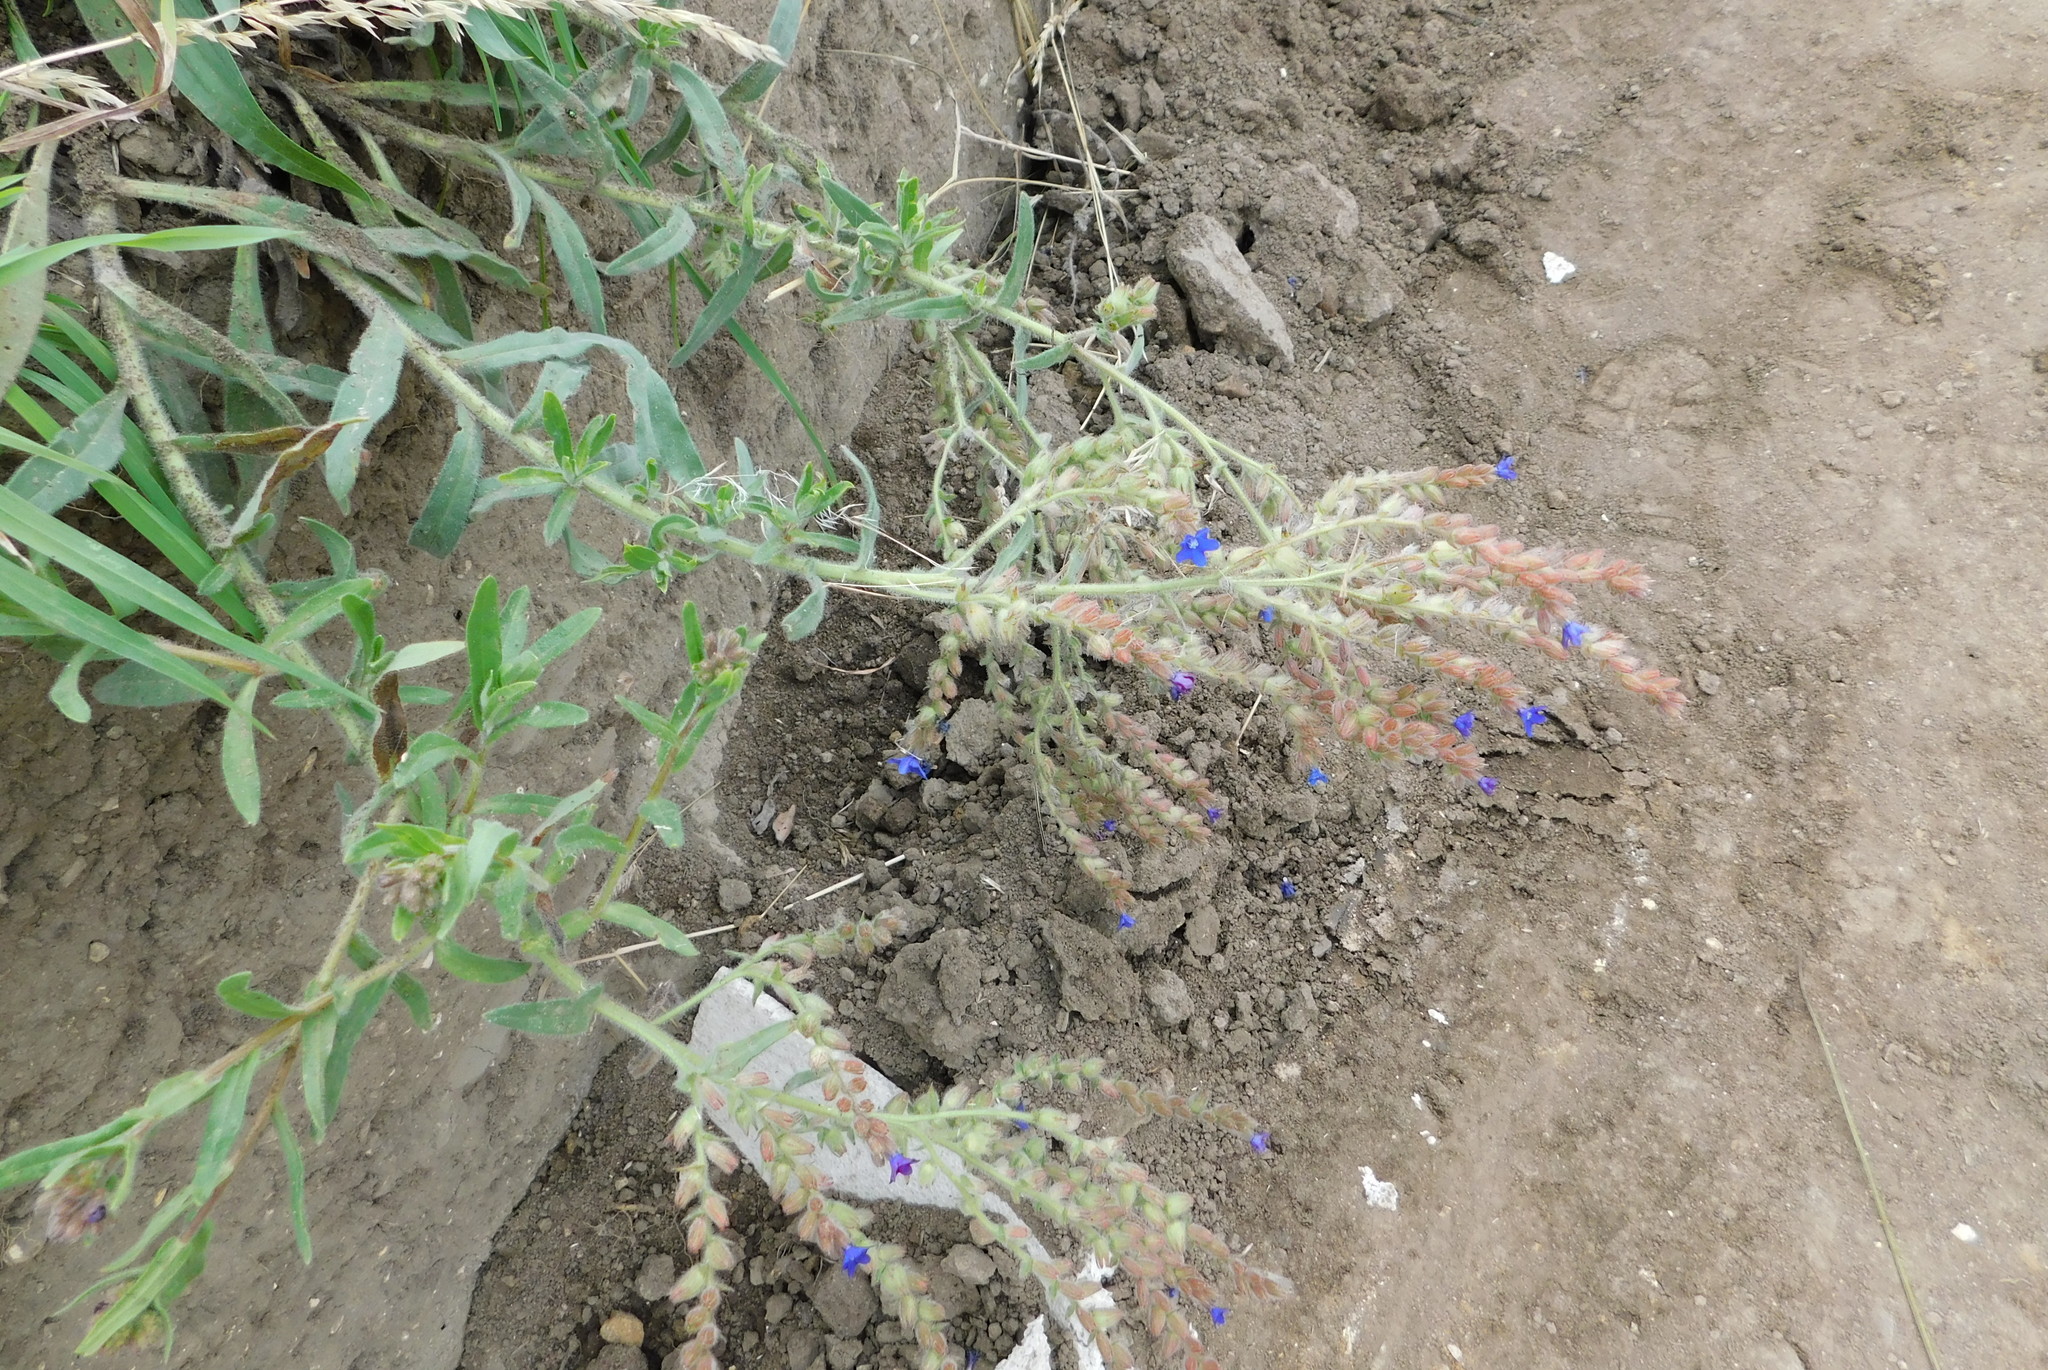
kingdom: Plantae
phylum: Tracheophyta
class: Magnoliopsida
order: Boraginales
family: Boraginaceae
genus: Anchusa
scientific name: Anchusa officinalis
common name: Alkanet
